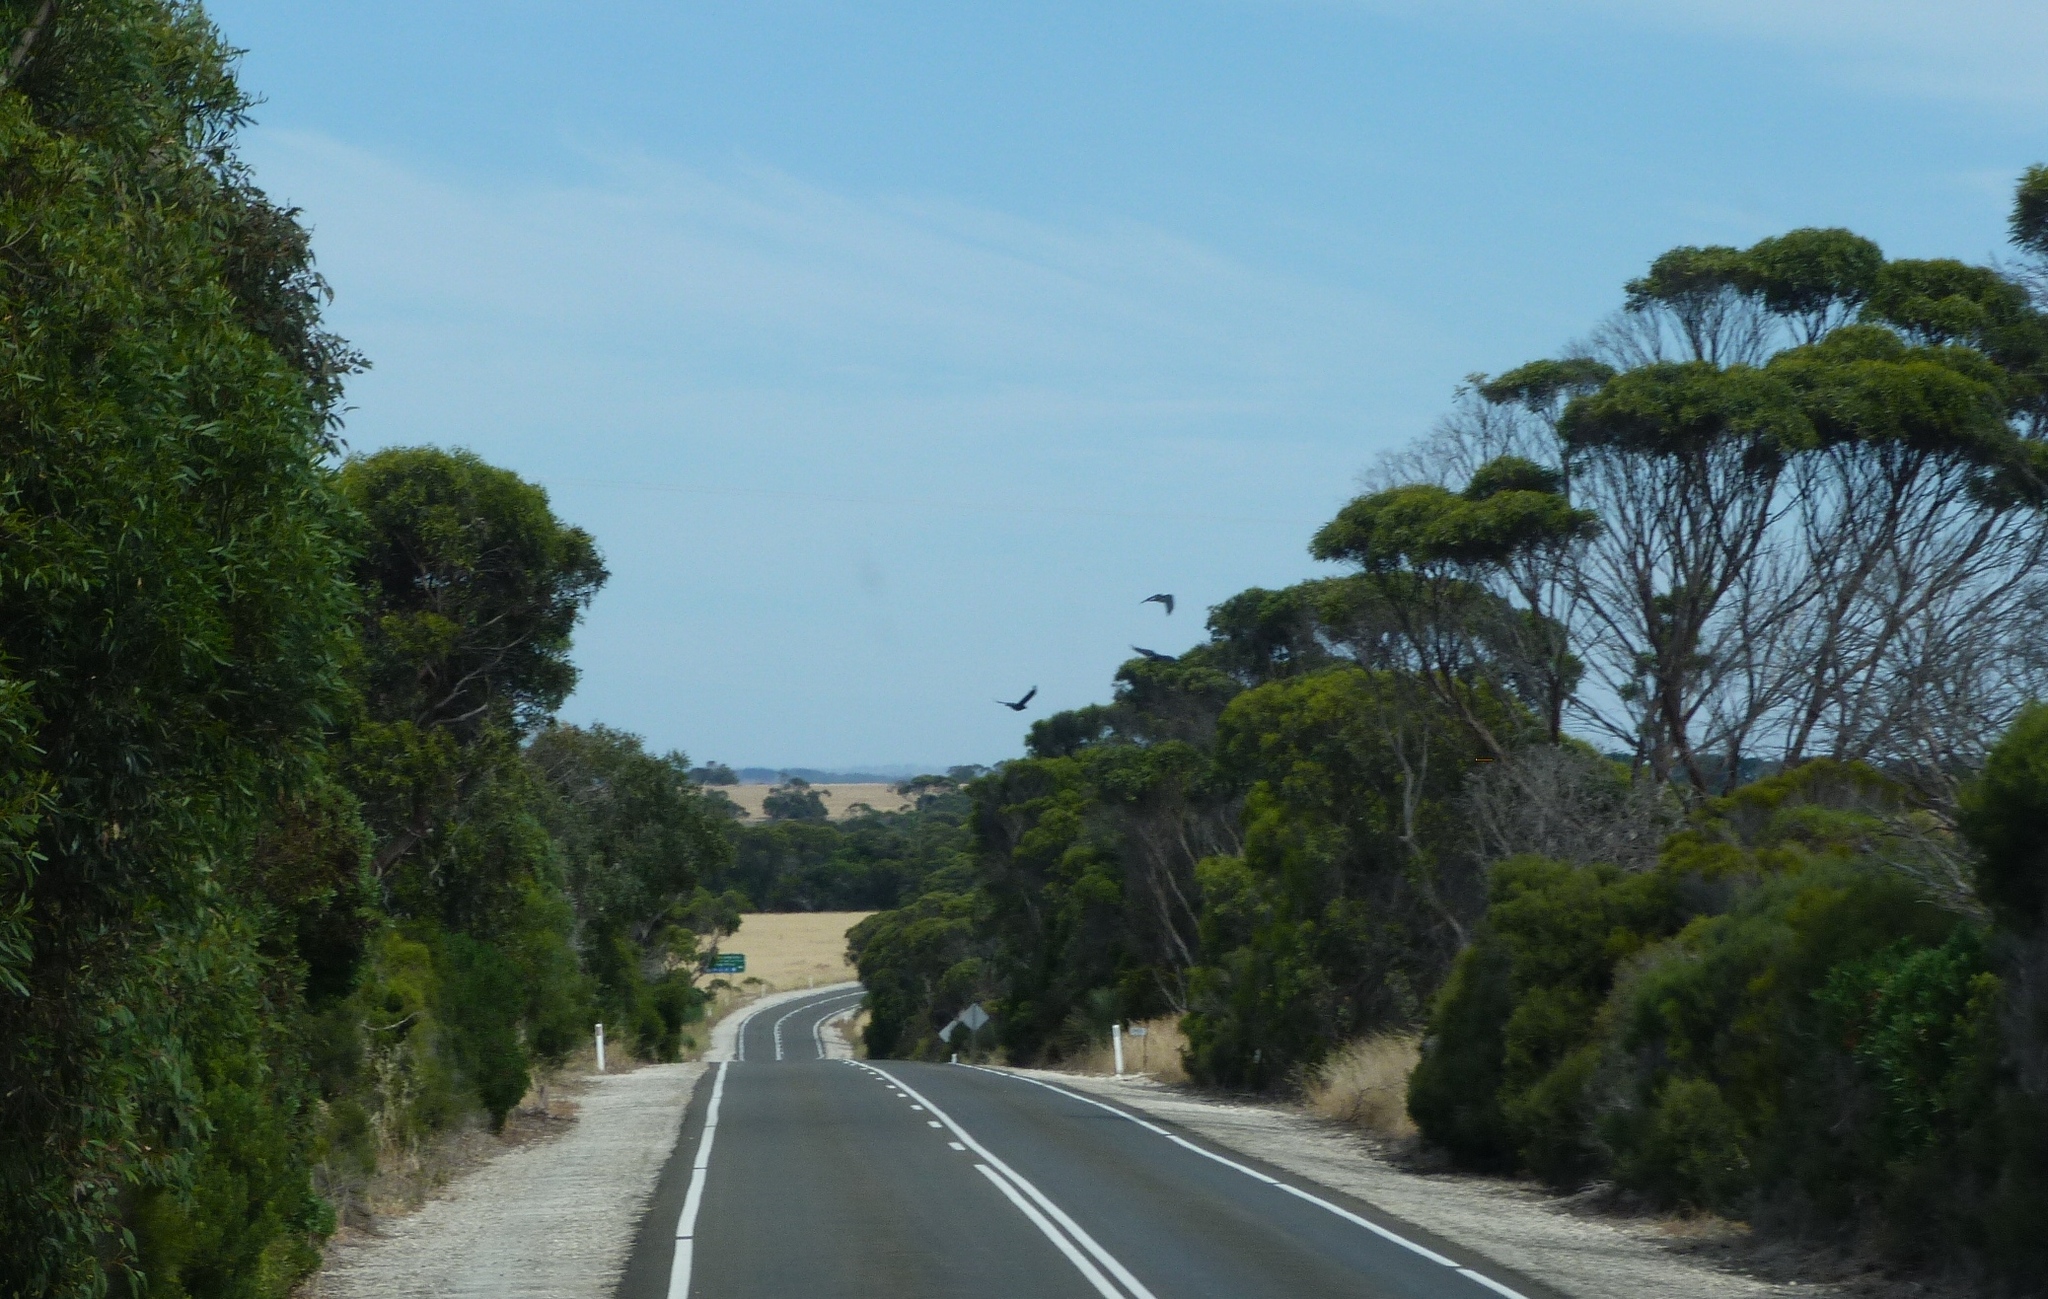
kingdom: Animalia
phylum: Chordata
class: Aves
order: Passeriformes
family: Corvidae
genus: Corvus
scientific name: Corvus
